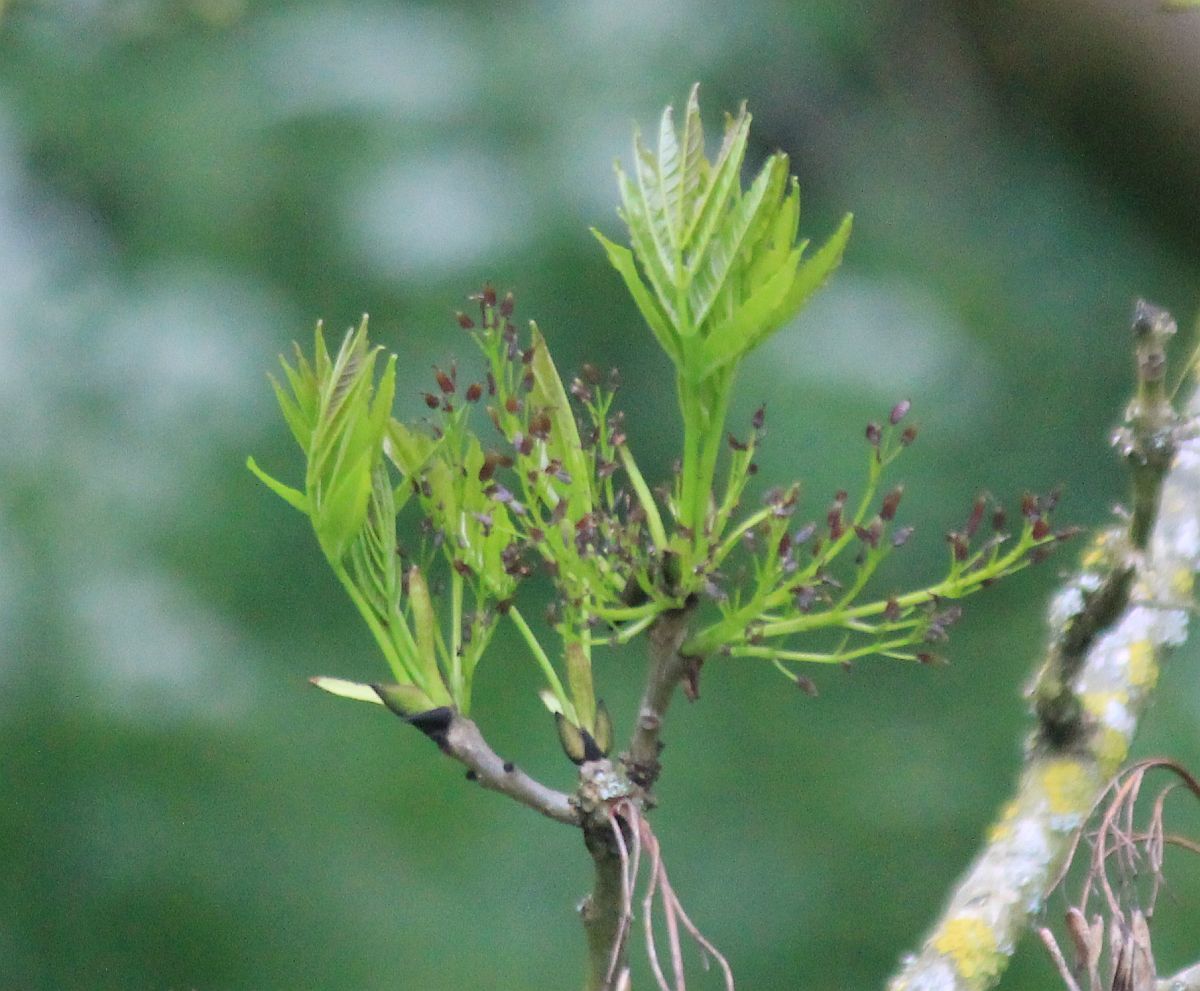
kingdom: Plantae
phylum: Tracheophyta
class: Magnoliopsida
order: Lamiales
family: Oleaceae
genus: Fraxinus
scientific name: Fraxinus excelsior
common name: European ash
